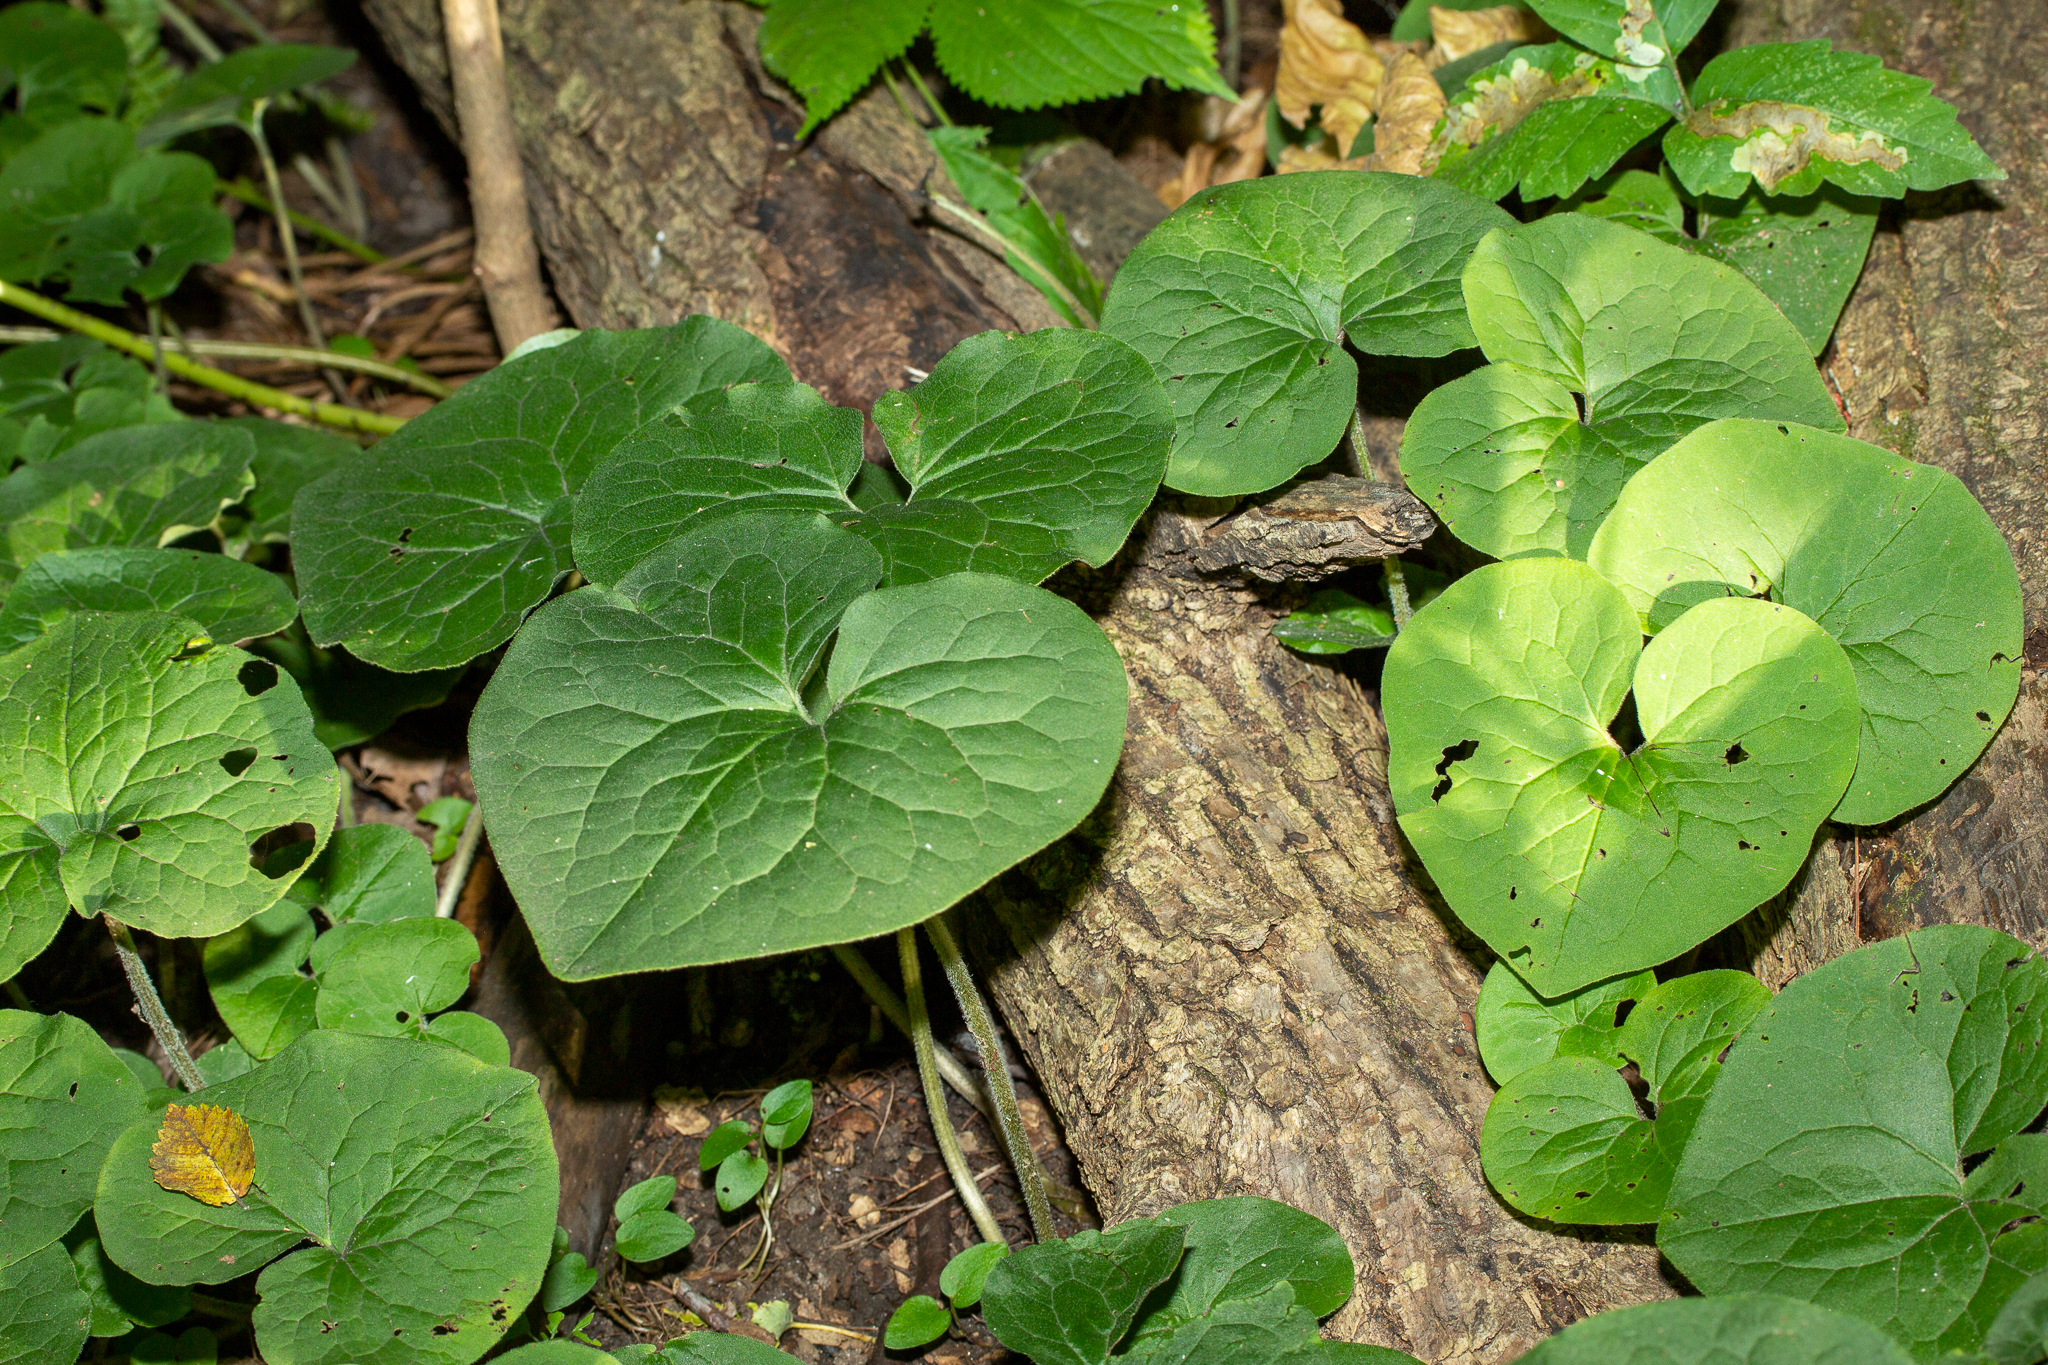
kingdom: Plantae
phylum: Tracheophyta
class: Magnoliopsida
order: Piperales
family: Aristolochiaceae
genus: Asarum
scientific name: Asarum canadense
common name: Wild ginger
